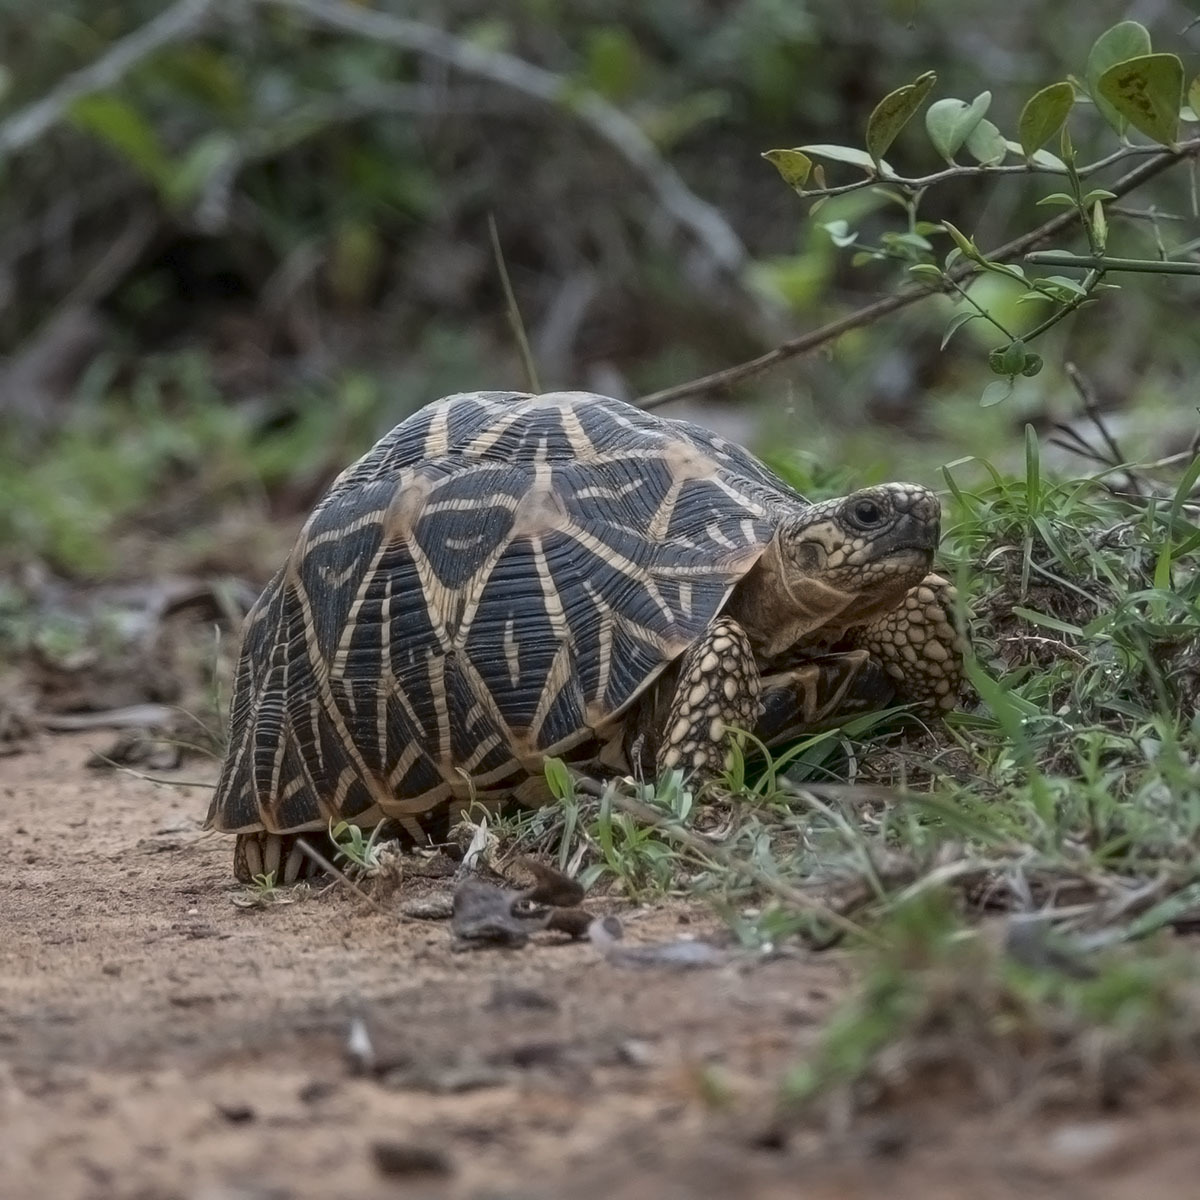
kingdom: Animalia
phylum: Chordata
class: Testudines
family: Testudinidae
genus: Geochelone
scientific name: Geochelone elegans
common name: Indian star tortoise
